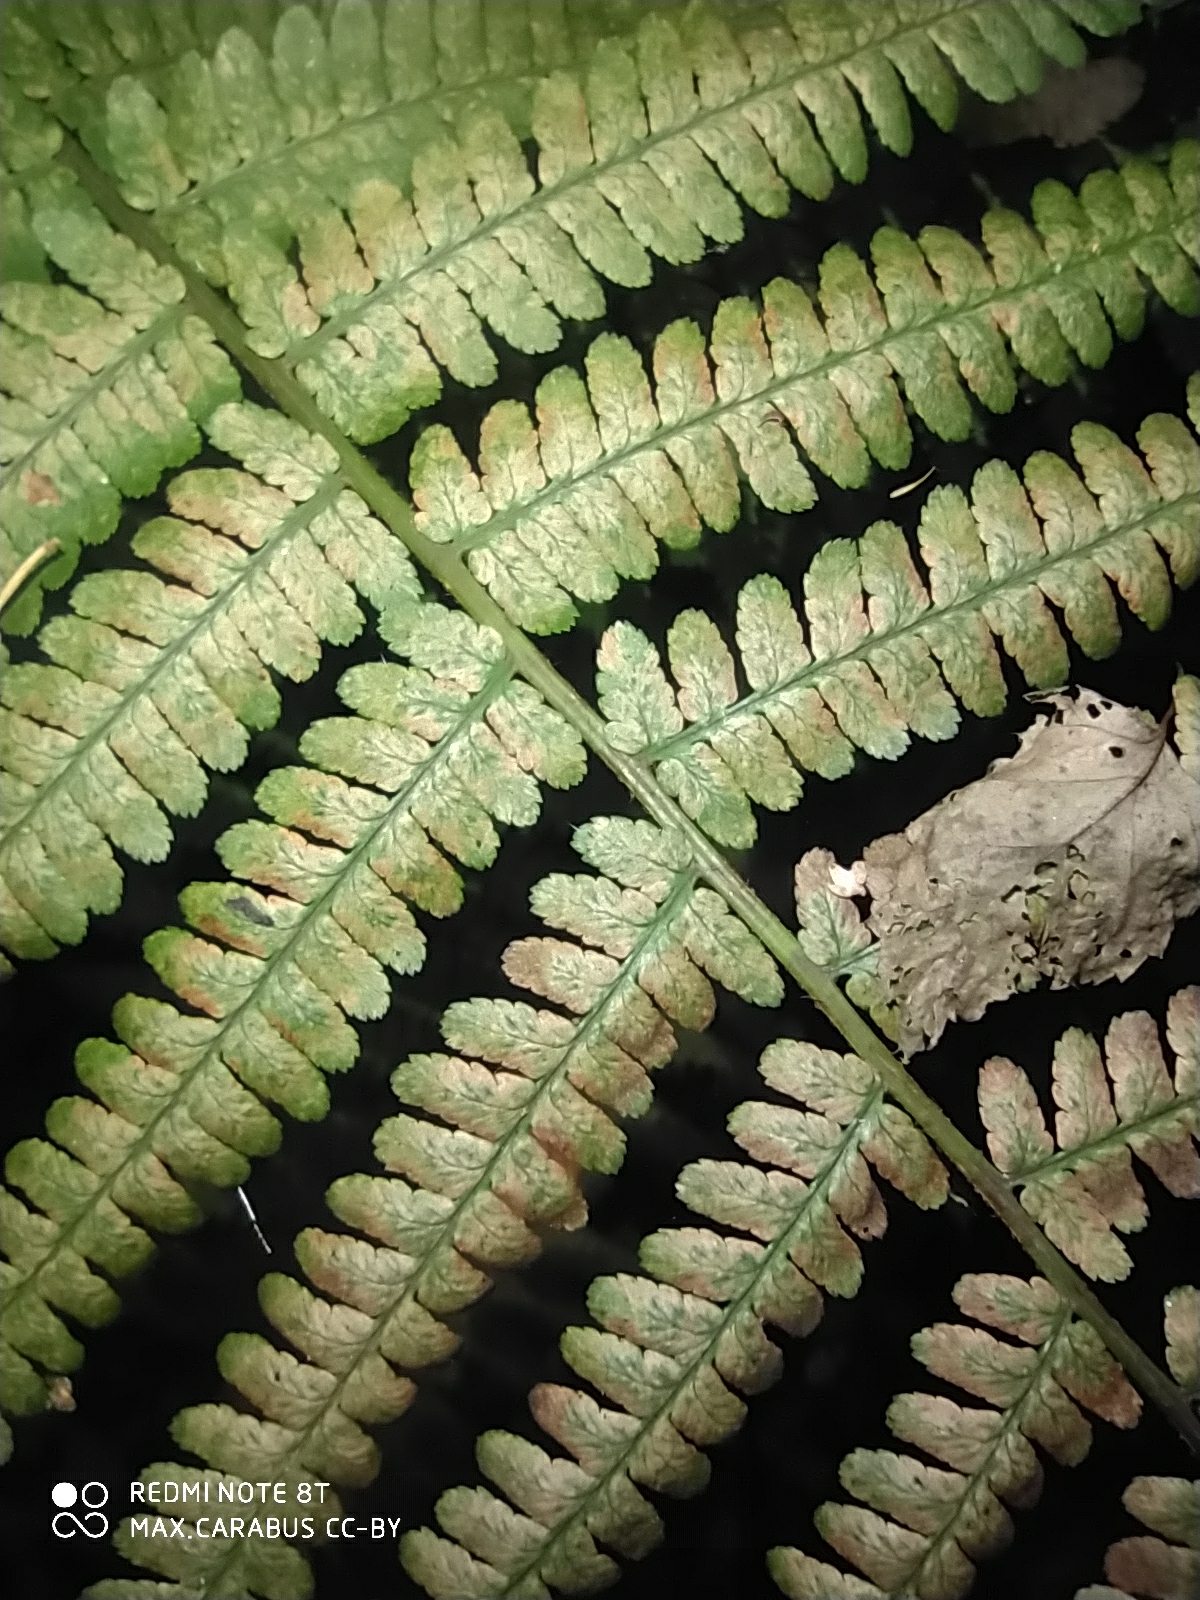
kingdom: Plantae
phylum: Tracheophyta
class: Polypodiopsida
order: Polypodiales
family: Dryopteridaceae
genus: Dryopteris
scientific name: Dryopteris filix-mas
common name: Male fern
